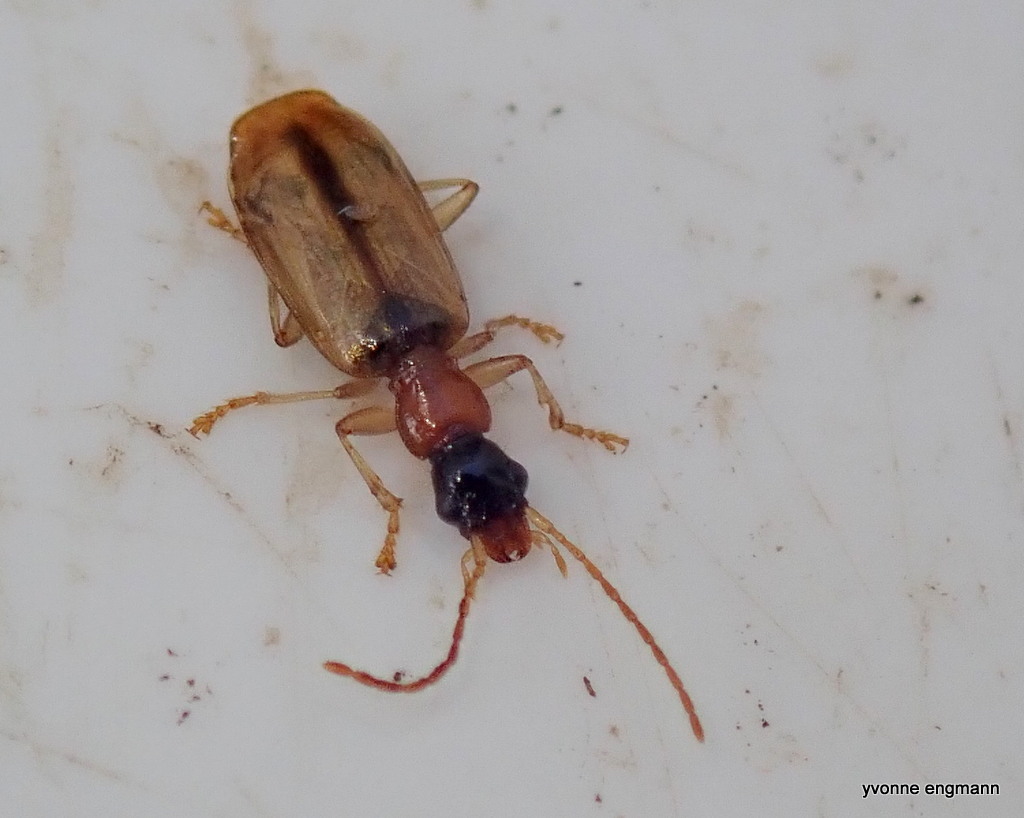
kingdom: Animalia
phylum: Arthropoda
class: Insecta
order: Coleoptera
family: Carabidae
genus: Demetrias
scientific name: Demetrias atricapillus
